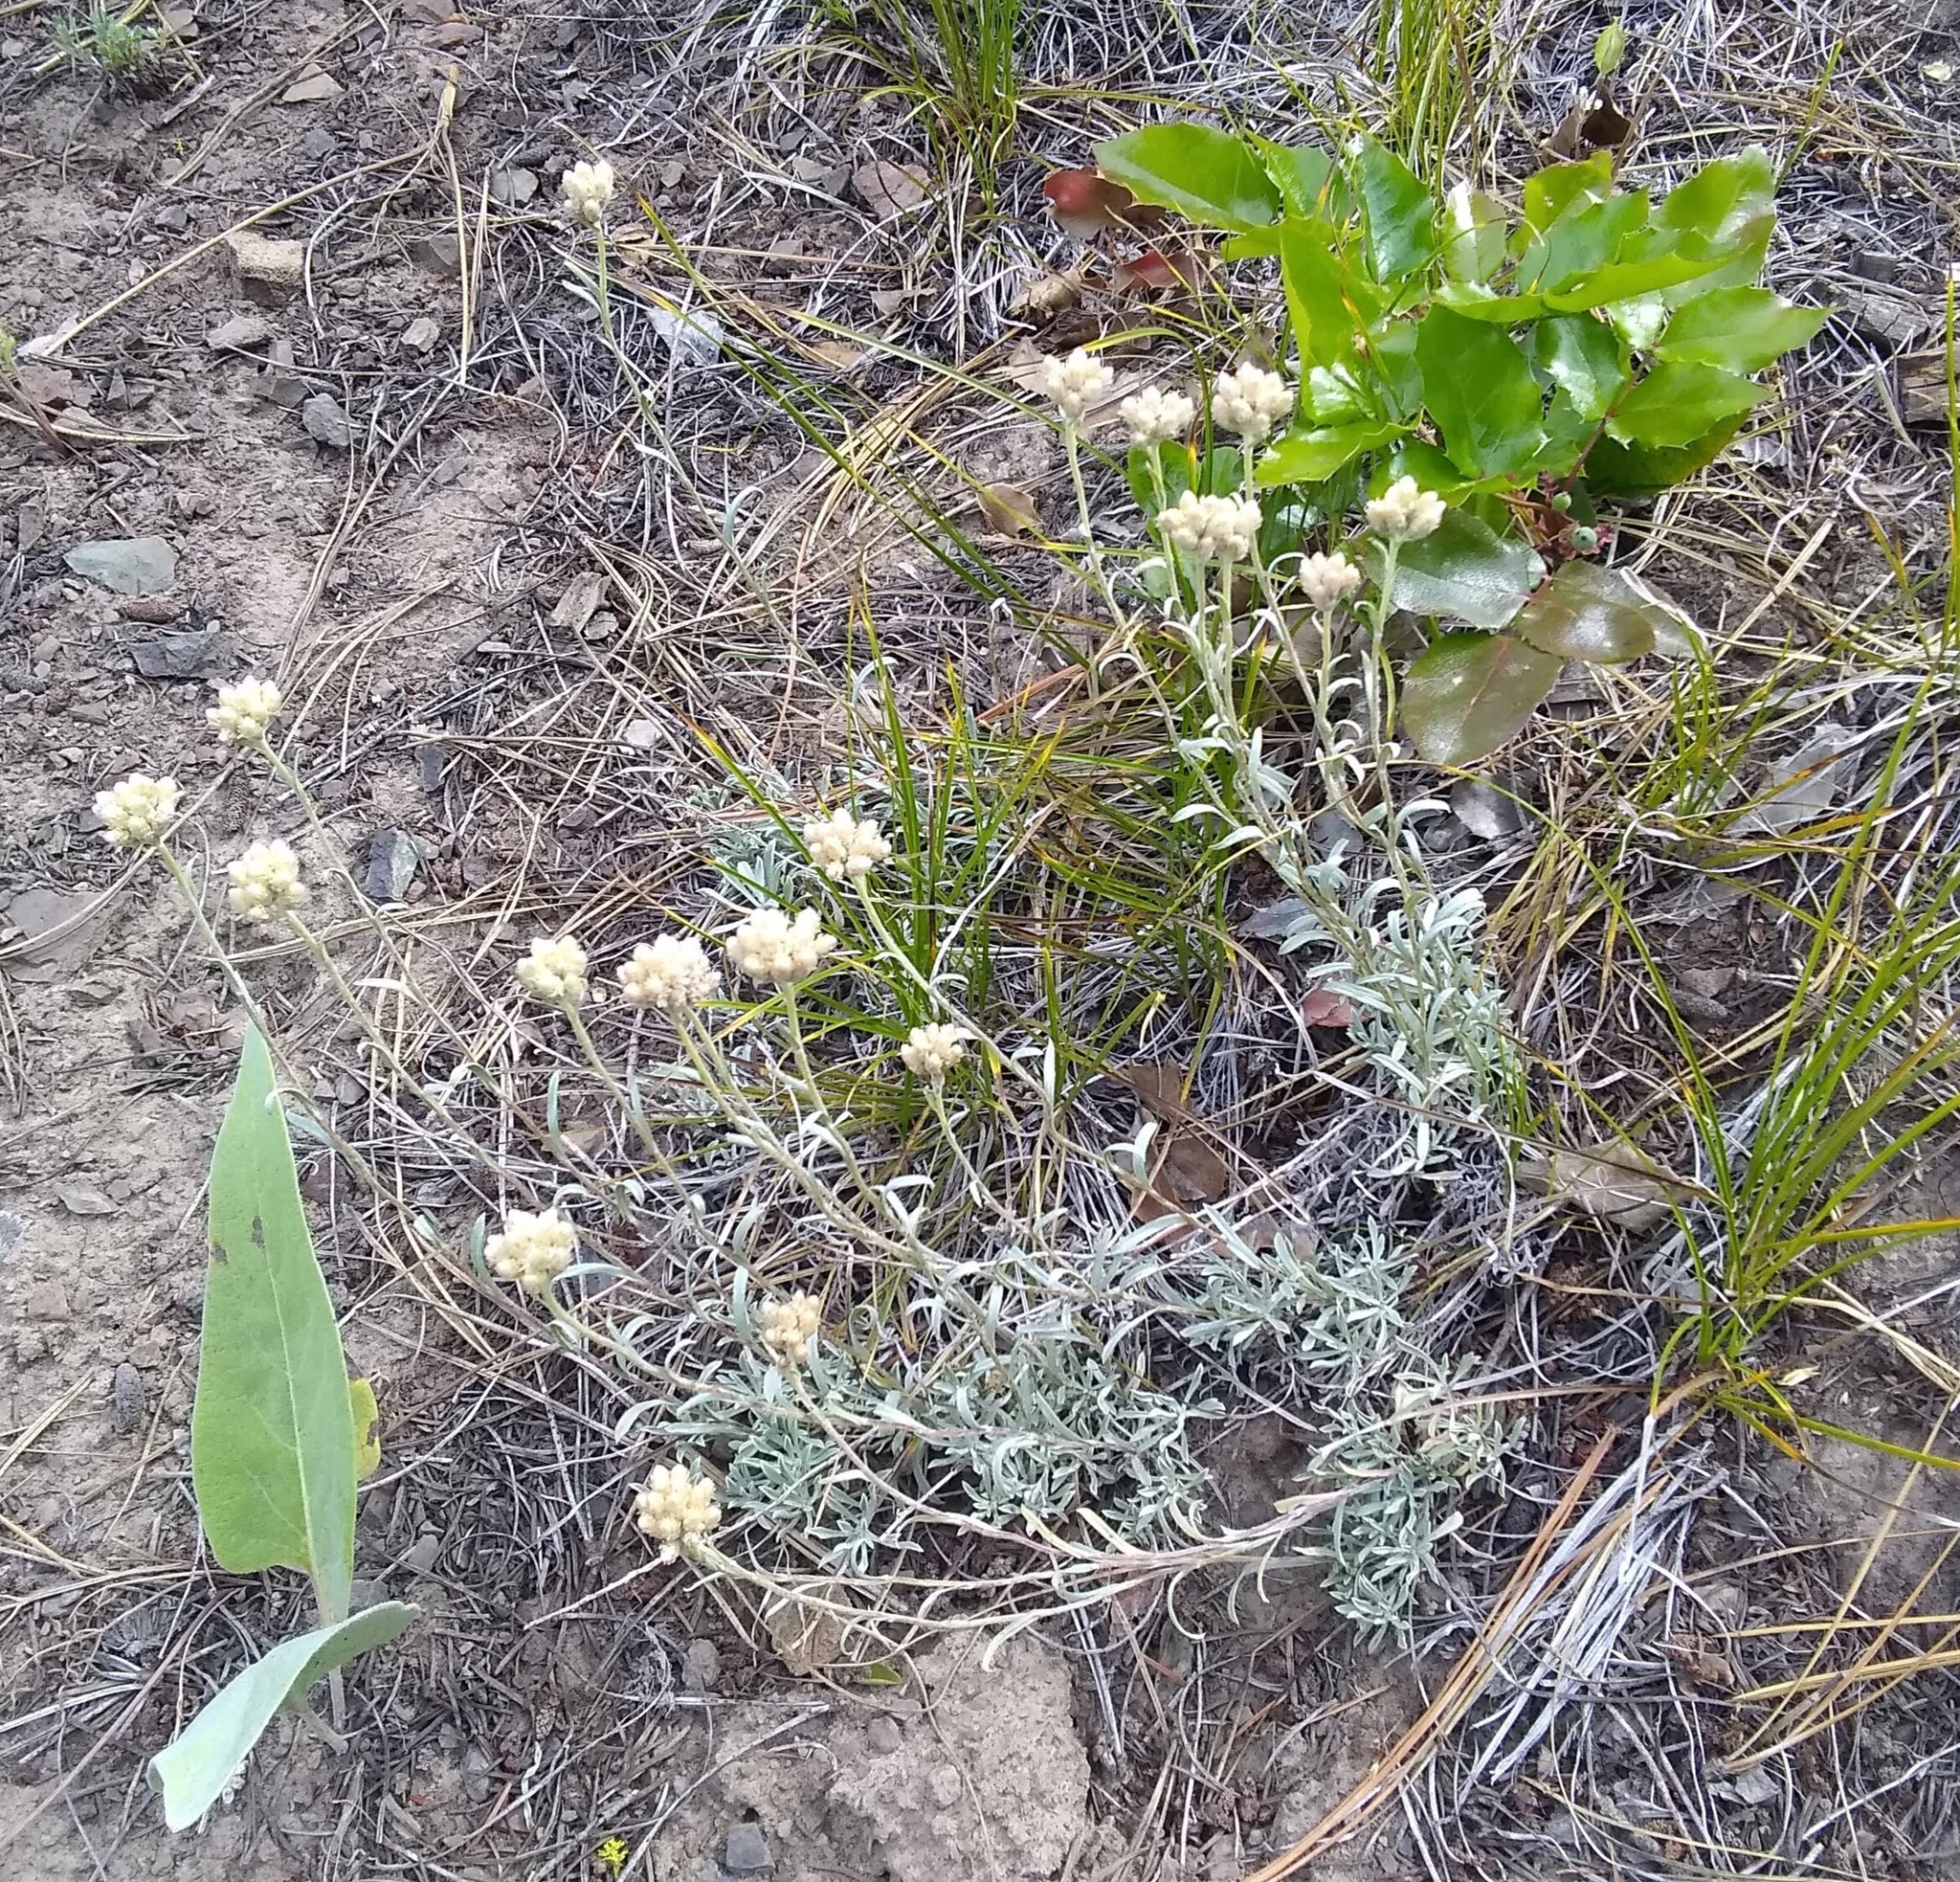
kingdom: Plantae
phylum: Tracheophyta
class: Magnoliopsida
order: Asterales
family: Asteraceae
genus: Antennaria
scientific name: Antennaria rosea
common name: Rosy pussytoes
